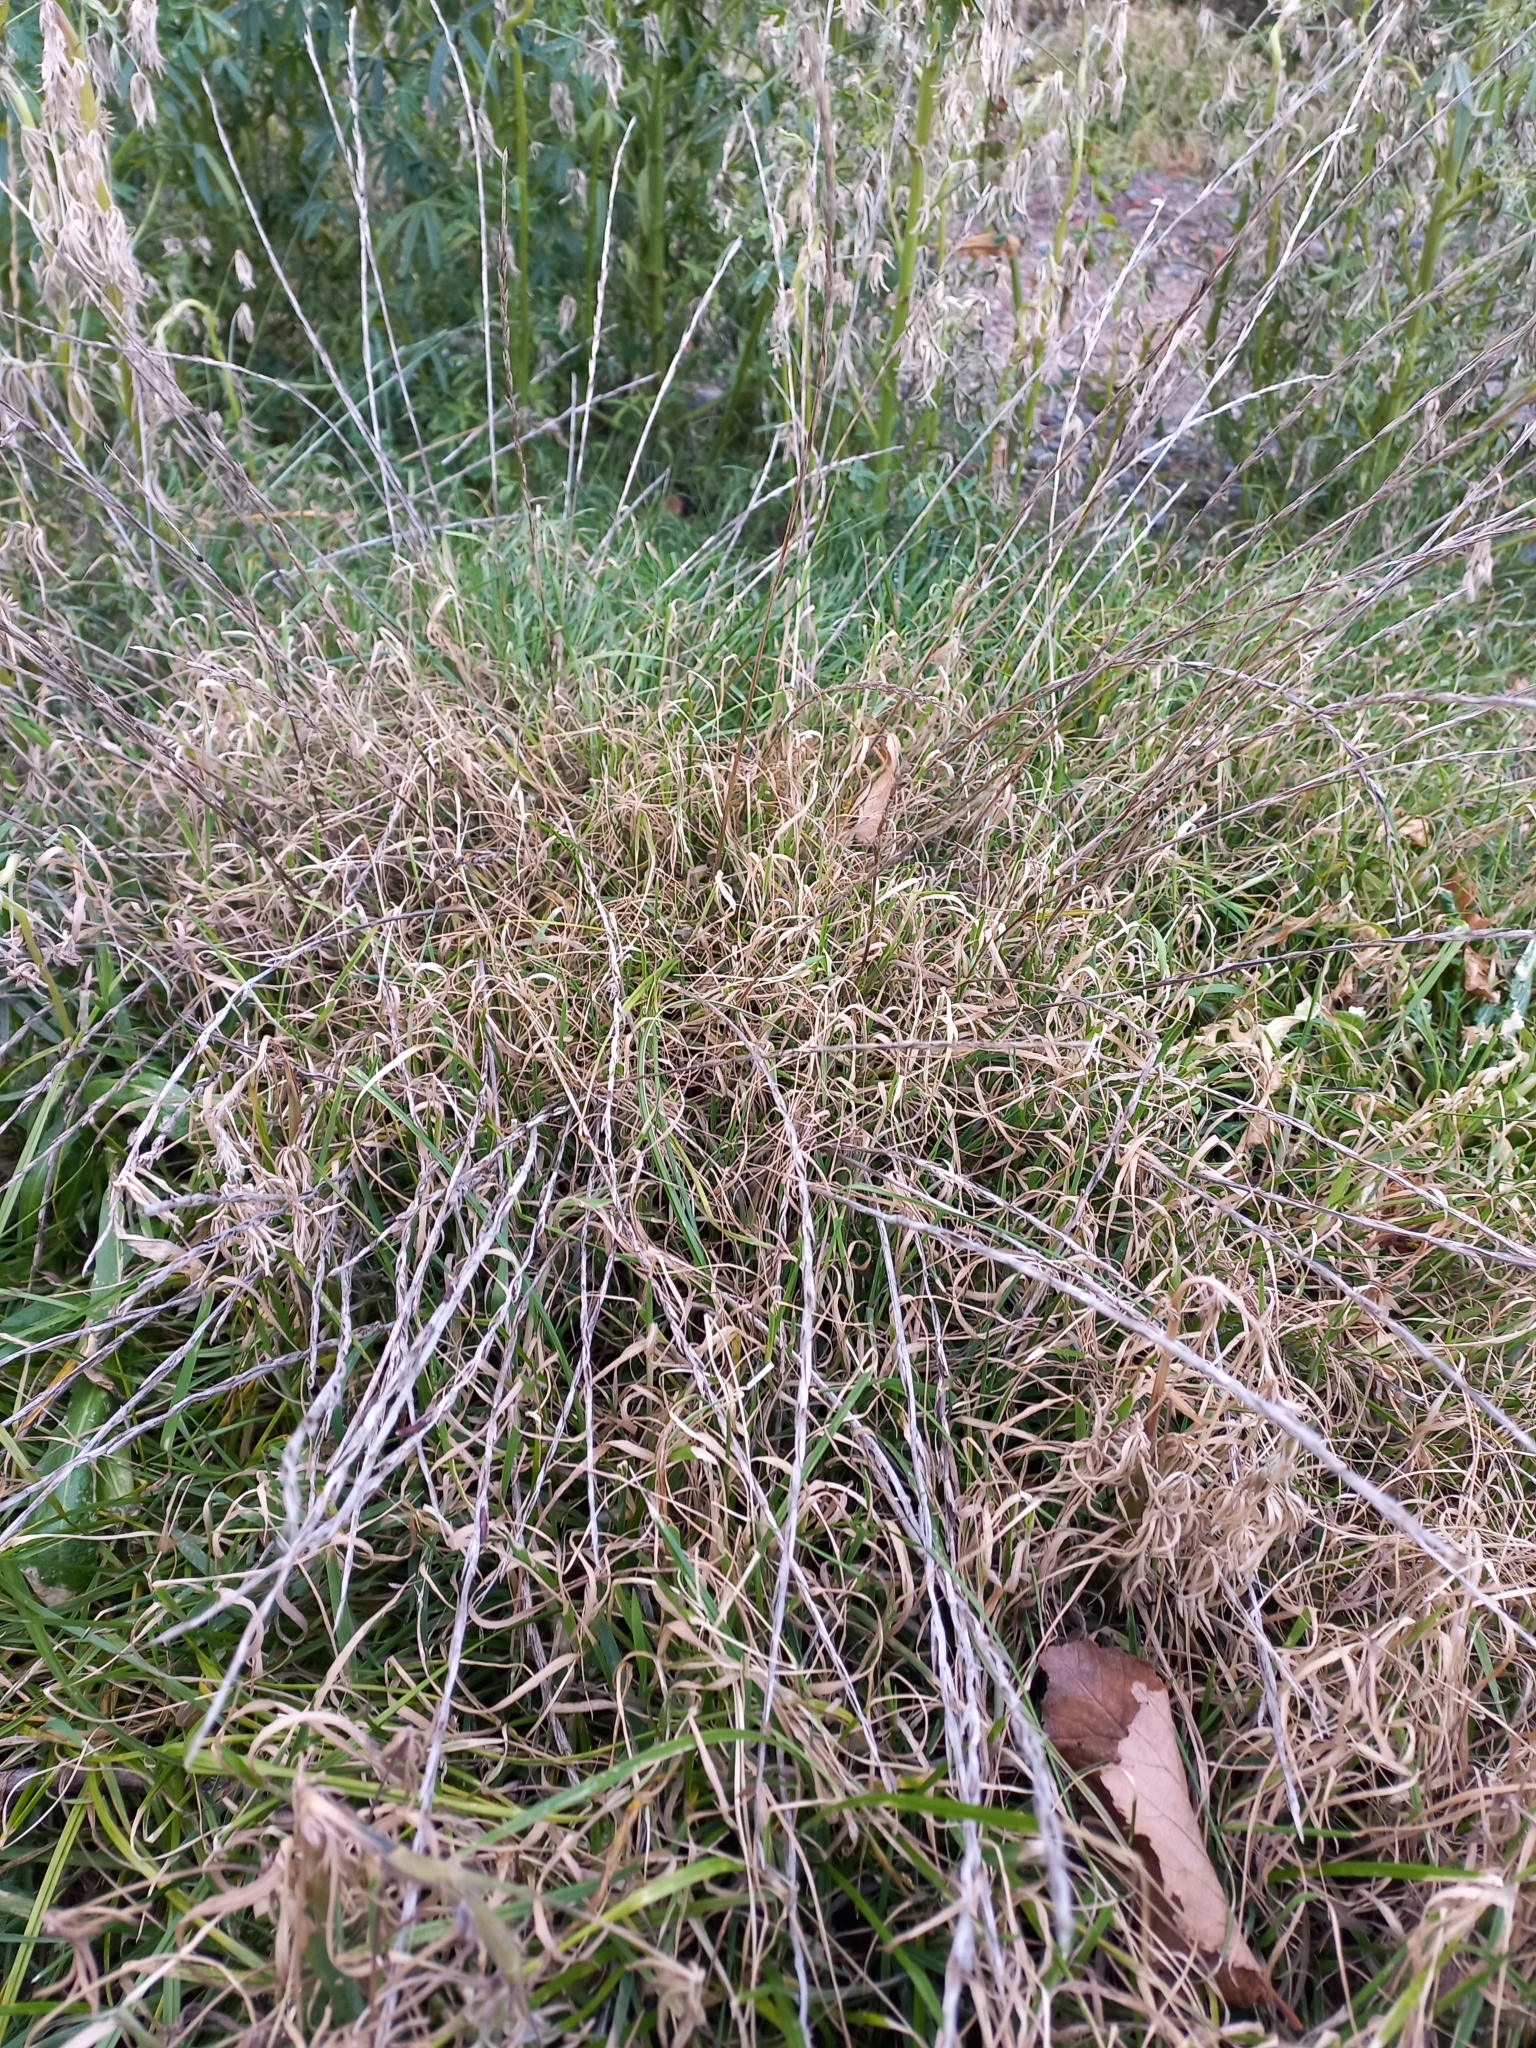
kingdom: Plantae
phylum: Tracheophyta
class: Liliopsida
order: Poales
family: Poaceae
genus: Lolium
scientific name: Lolium perenne
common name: Perennial ryegrass
